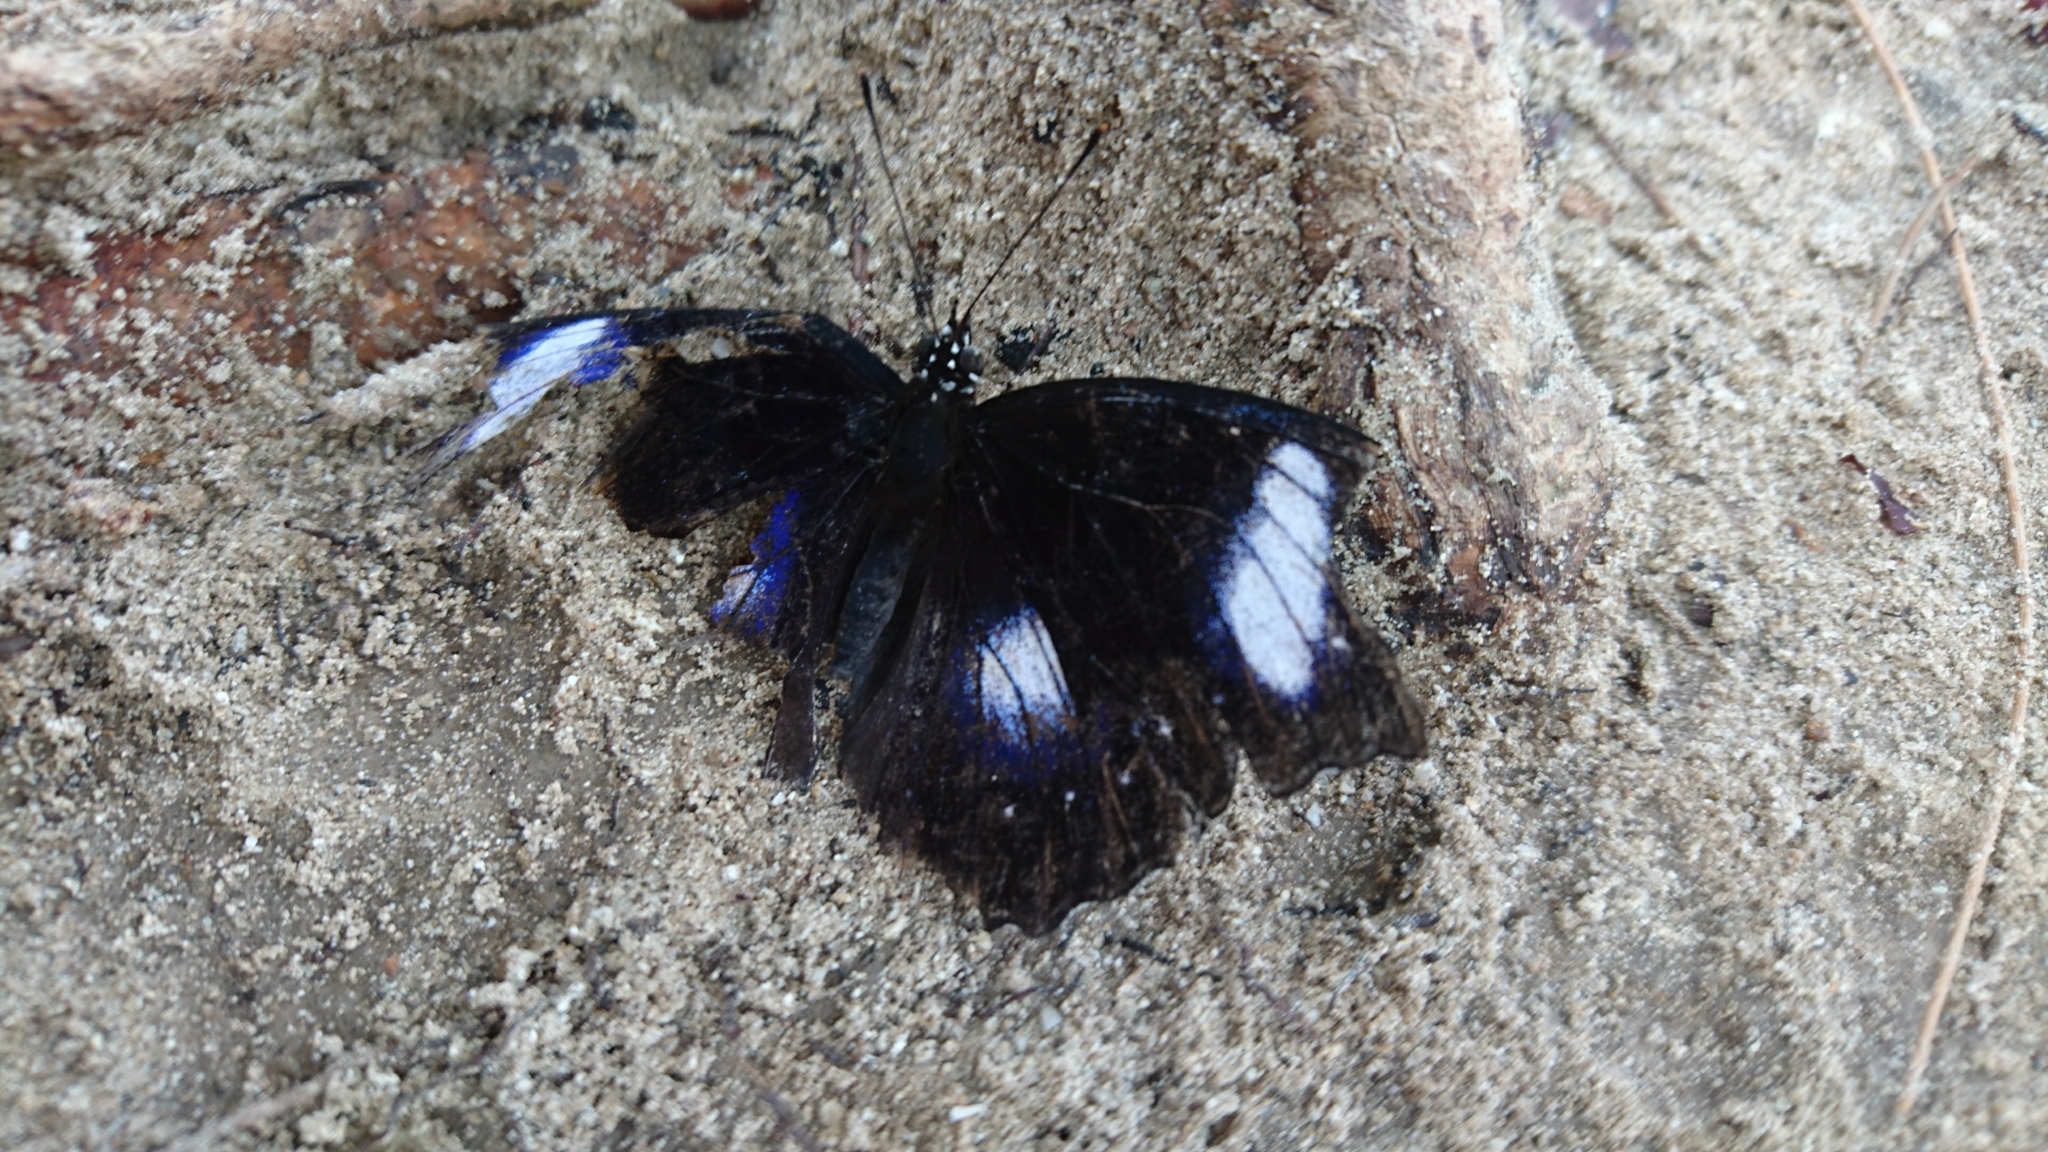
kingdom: Animalia
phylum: Arthropoda
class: Insecta
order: Lepidoptera
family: Nymphalidae
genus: Hypolimnas
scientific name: Hypolimnas bolina
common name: Great eggfly
